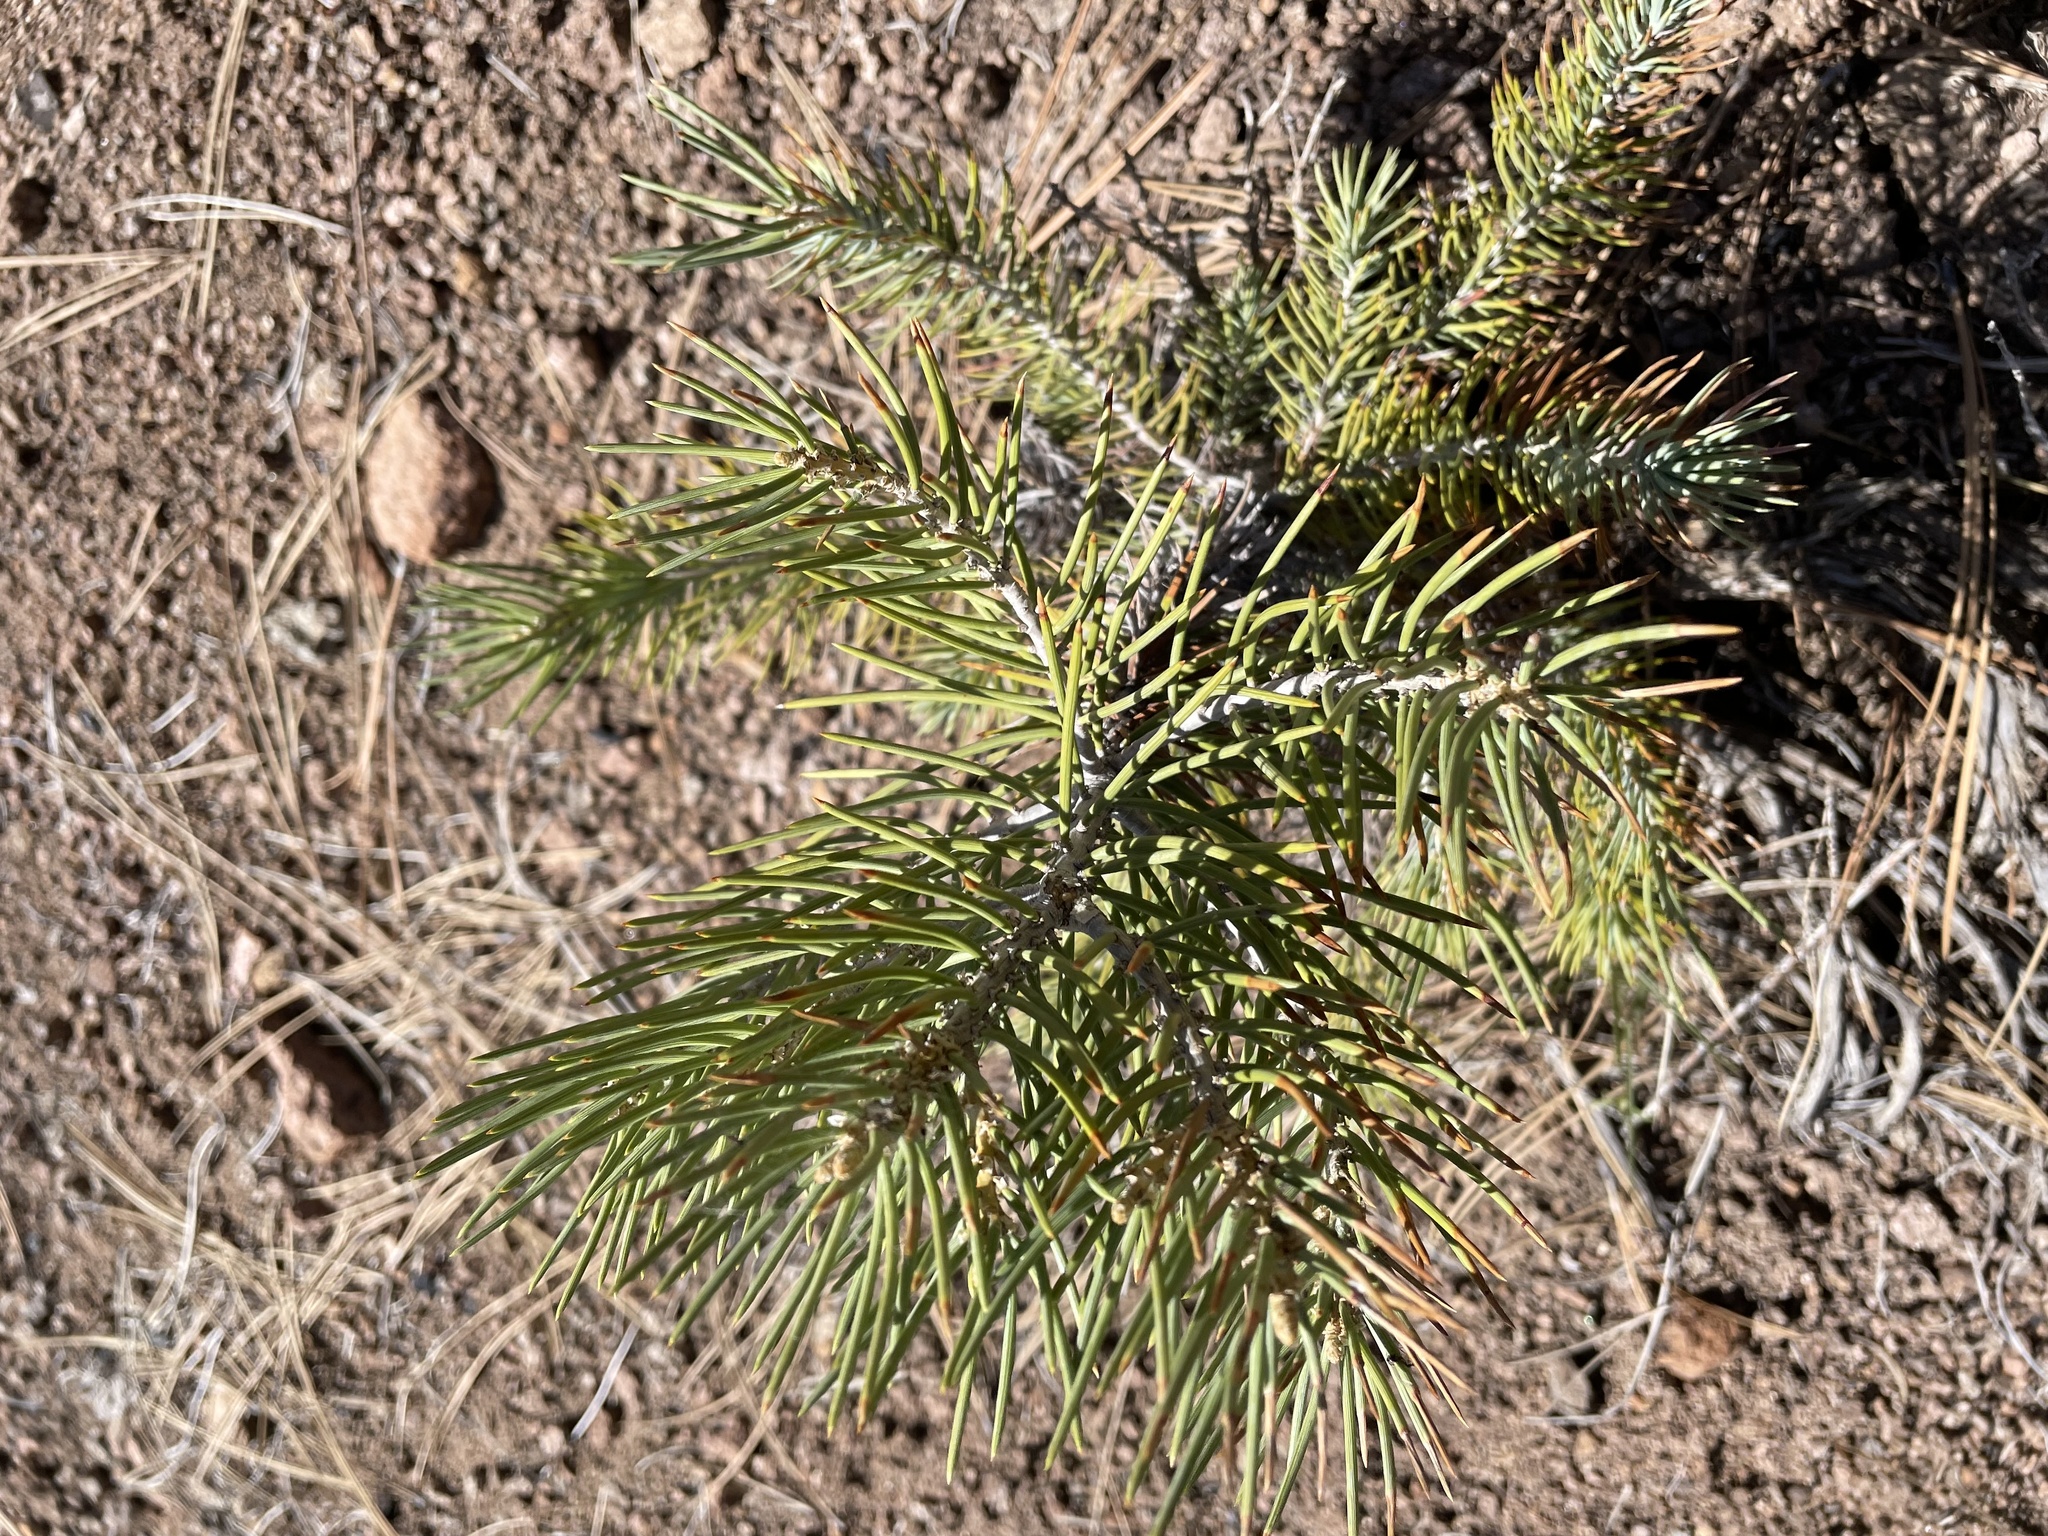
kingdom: Plantae
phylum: Tracheophyta
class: Pinopsida
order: Pinales
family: Pinaceae
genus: Pinus
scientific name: Pinus monophylla
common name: One-leaved nut pine
